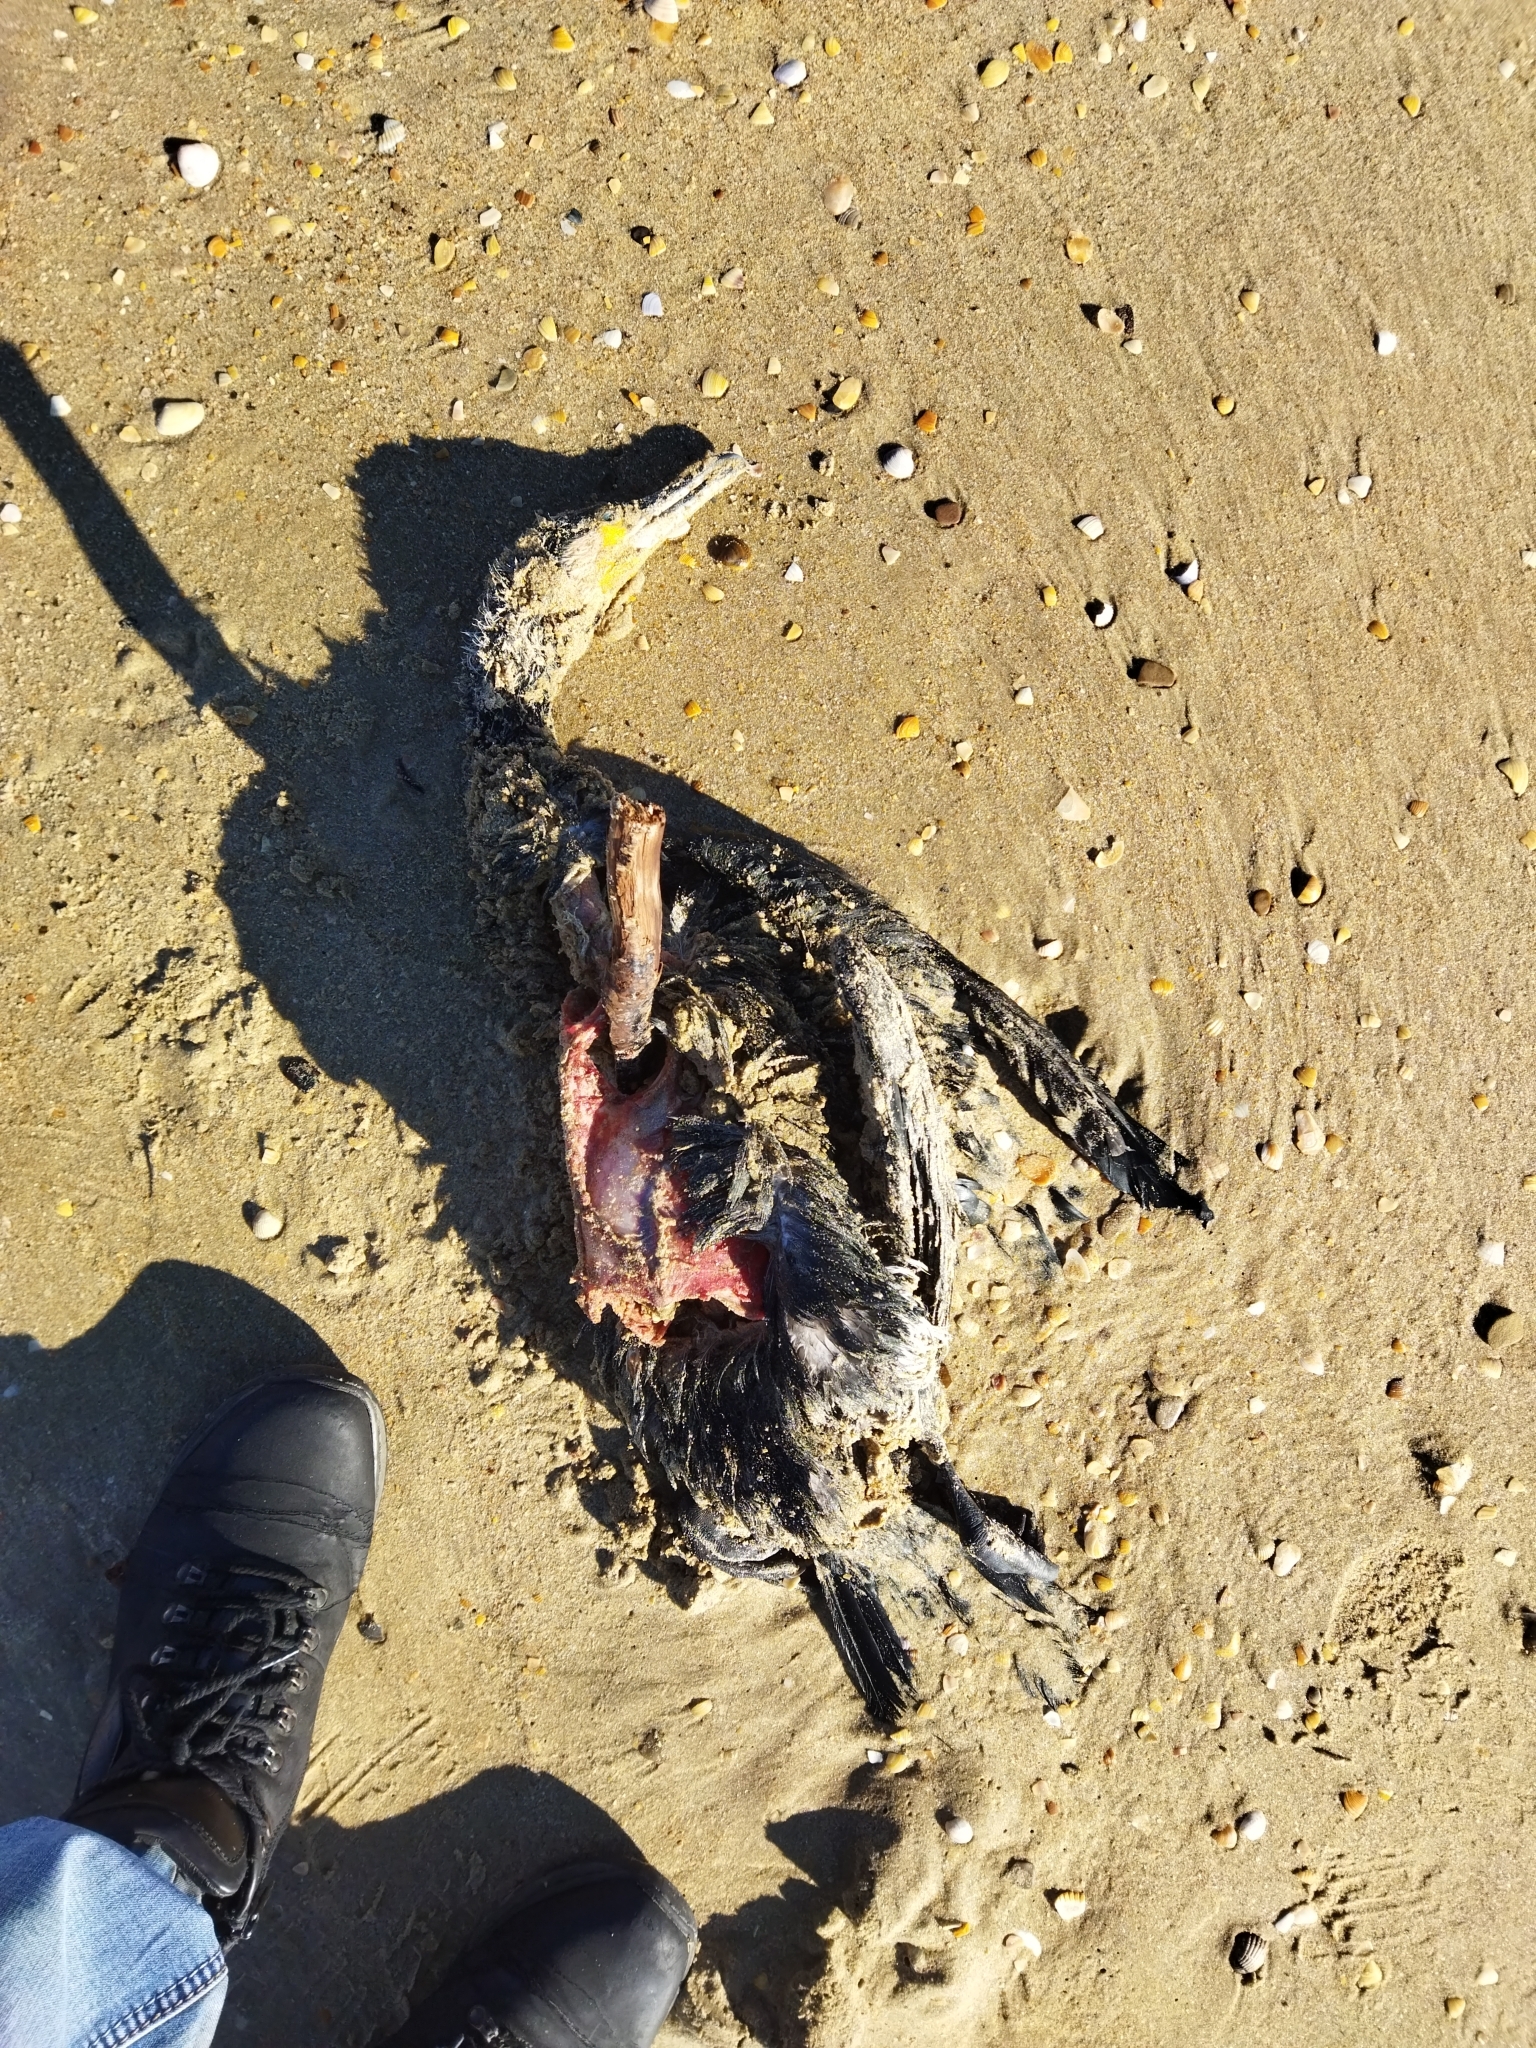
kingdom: Animalia
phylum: Chordata
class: Aves
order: Suliformes
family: Phalacrocoracidae
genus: Phalacrocorax
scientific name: Phalacrocorax carbo
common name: Great cormorant
